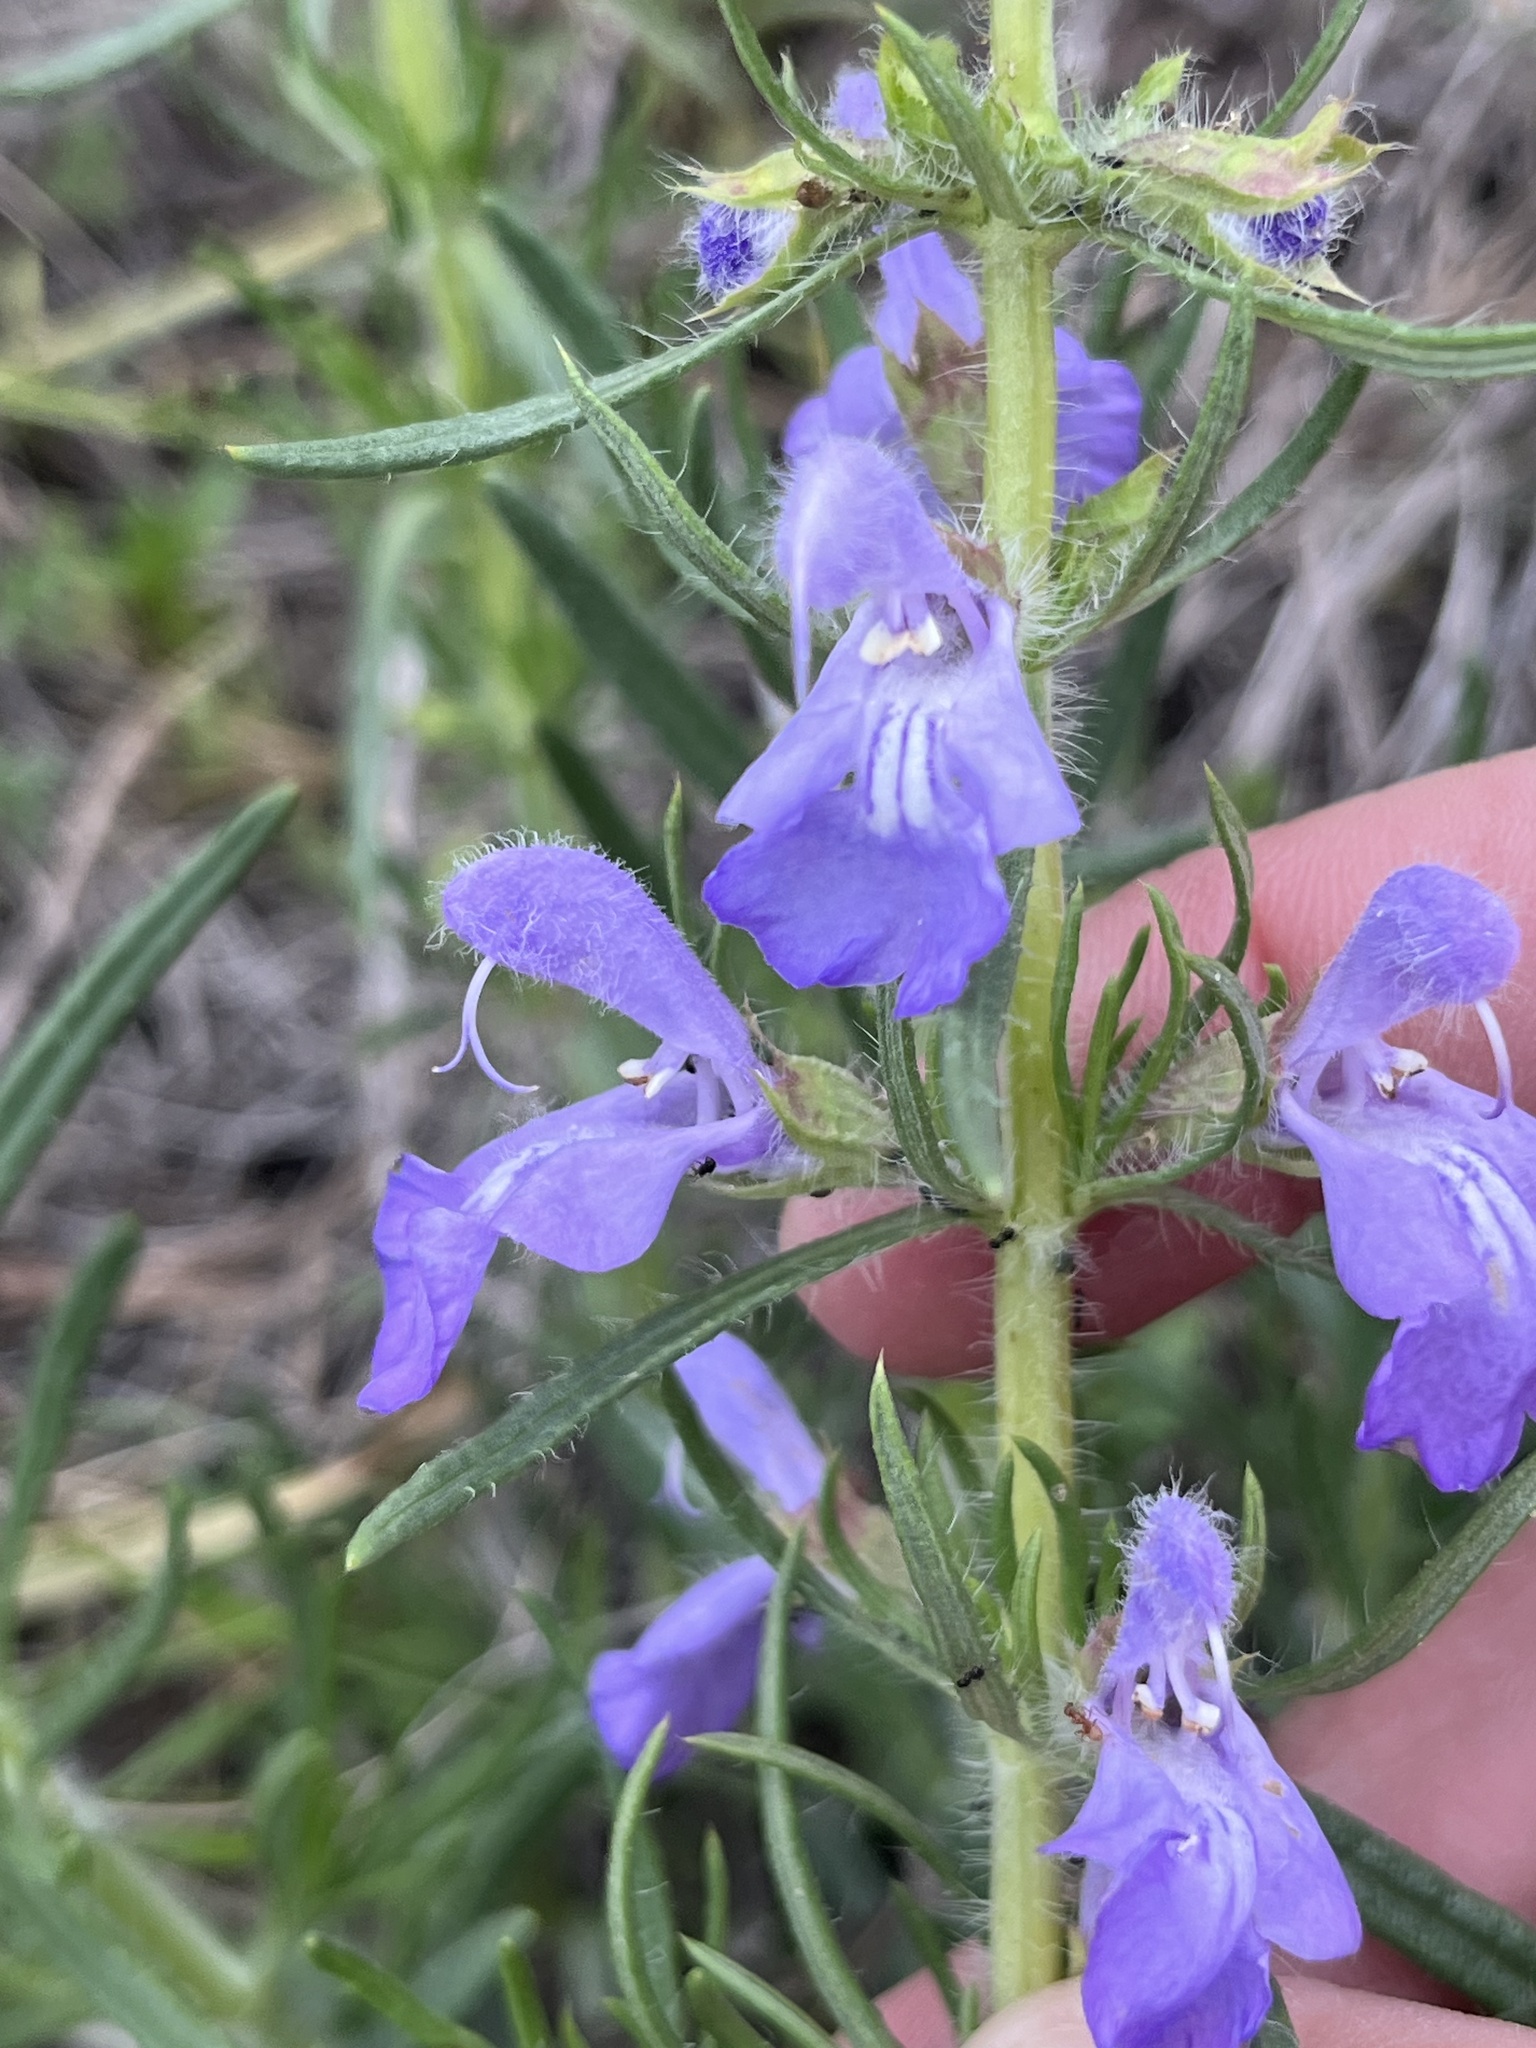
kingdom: Plantae
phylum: Tracheophyta
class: Magnoliopsida
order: Lamiales
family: Lamiaceae
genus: Salvia
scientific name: Salvia engelmannii
